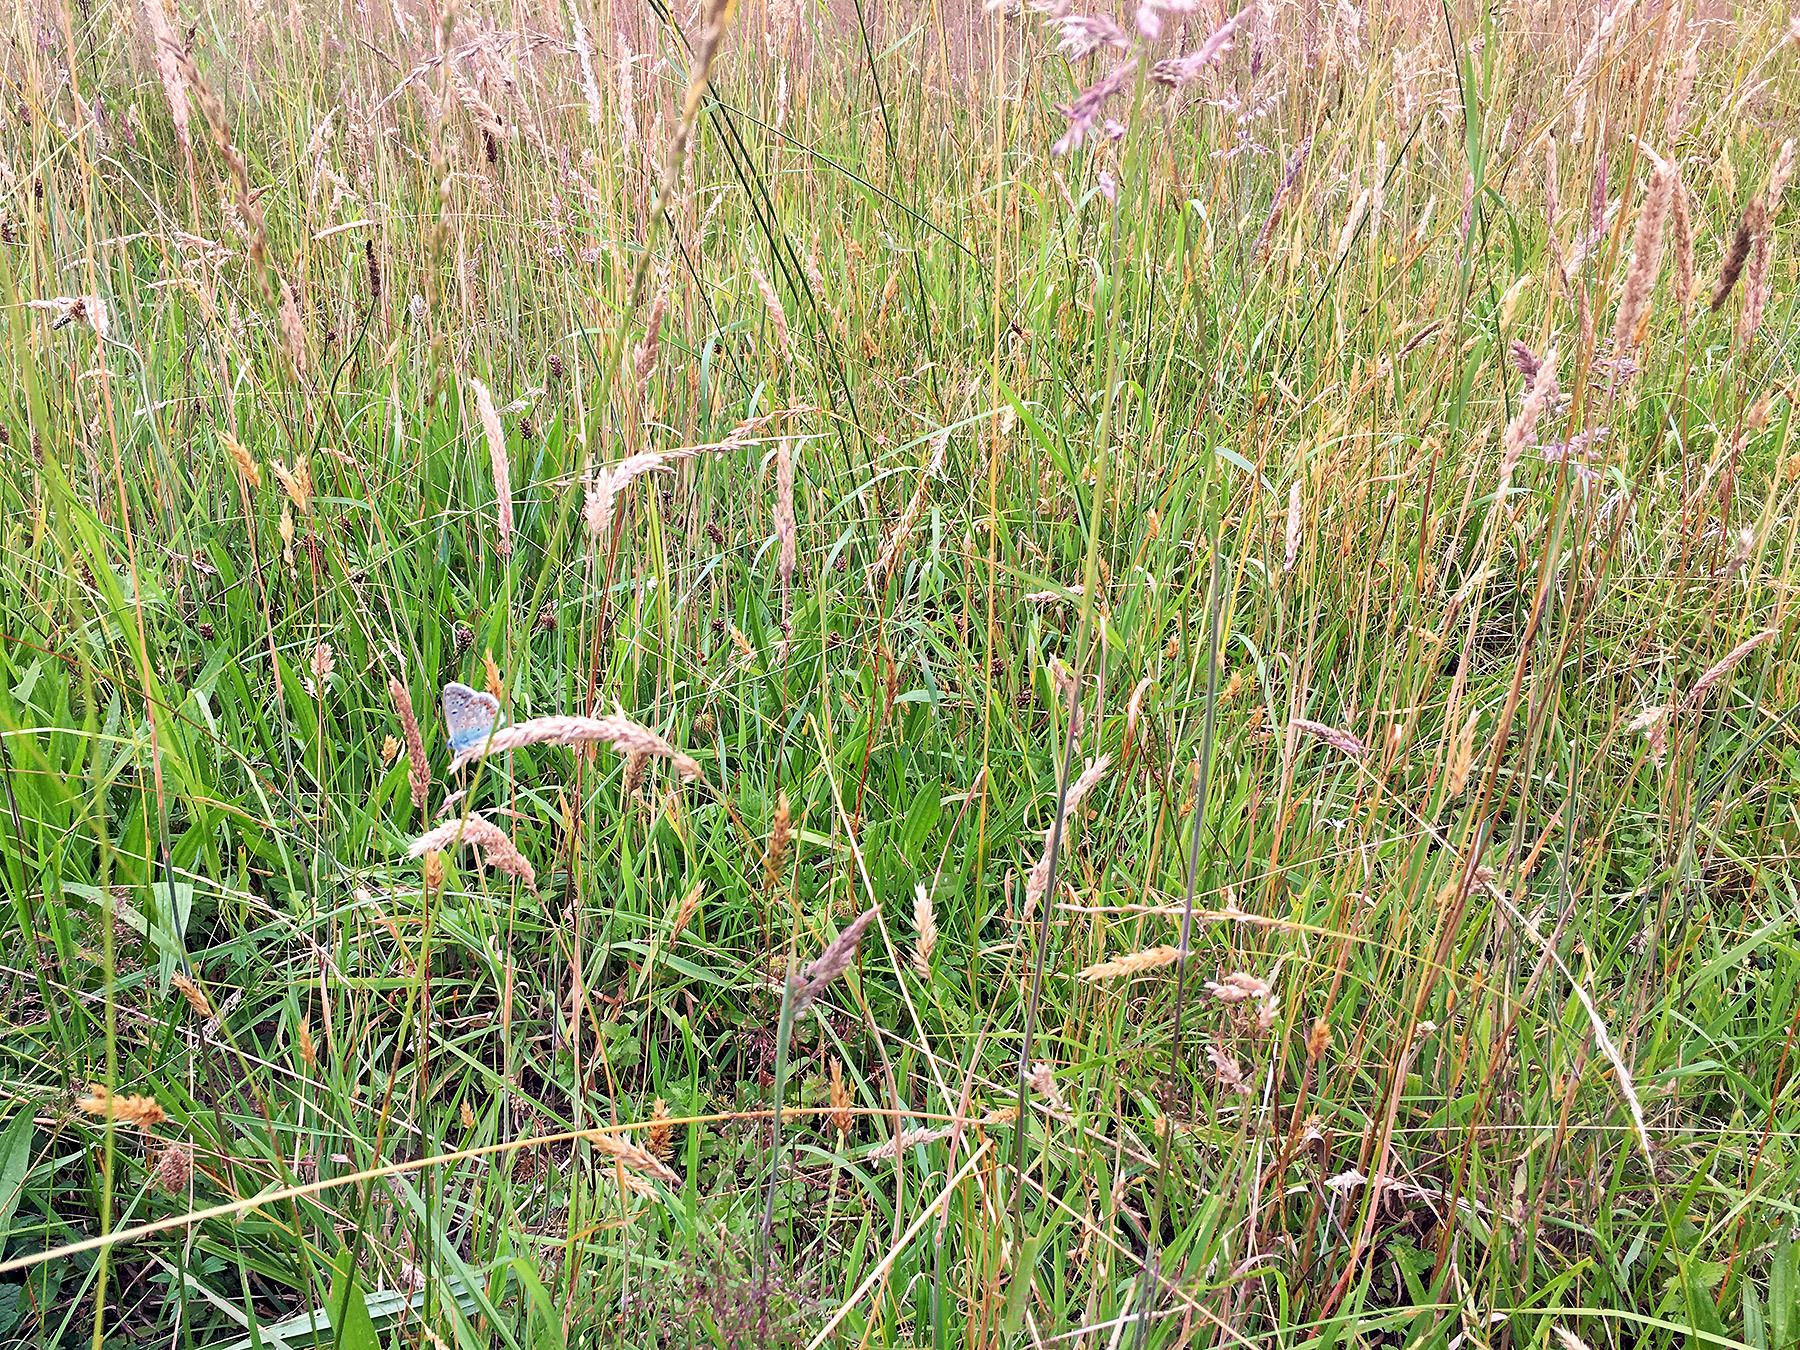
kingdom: Animalia
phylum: Arthropoda
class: Insecta
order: Lepidoptera
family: Lycaenidae
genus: Polyommatus
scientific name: Polyommatus icarus
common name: Common blue
